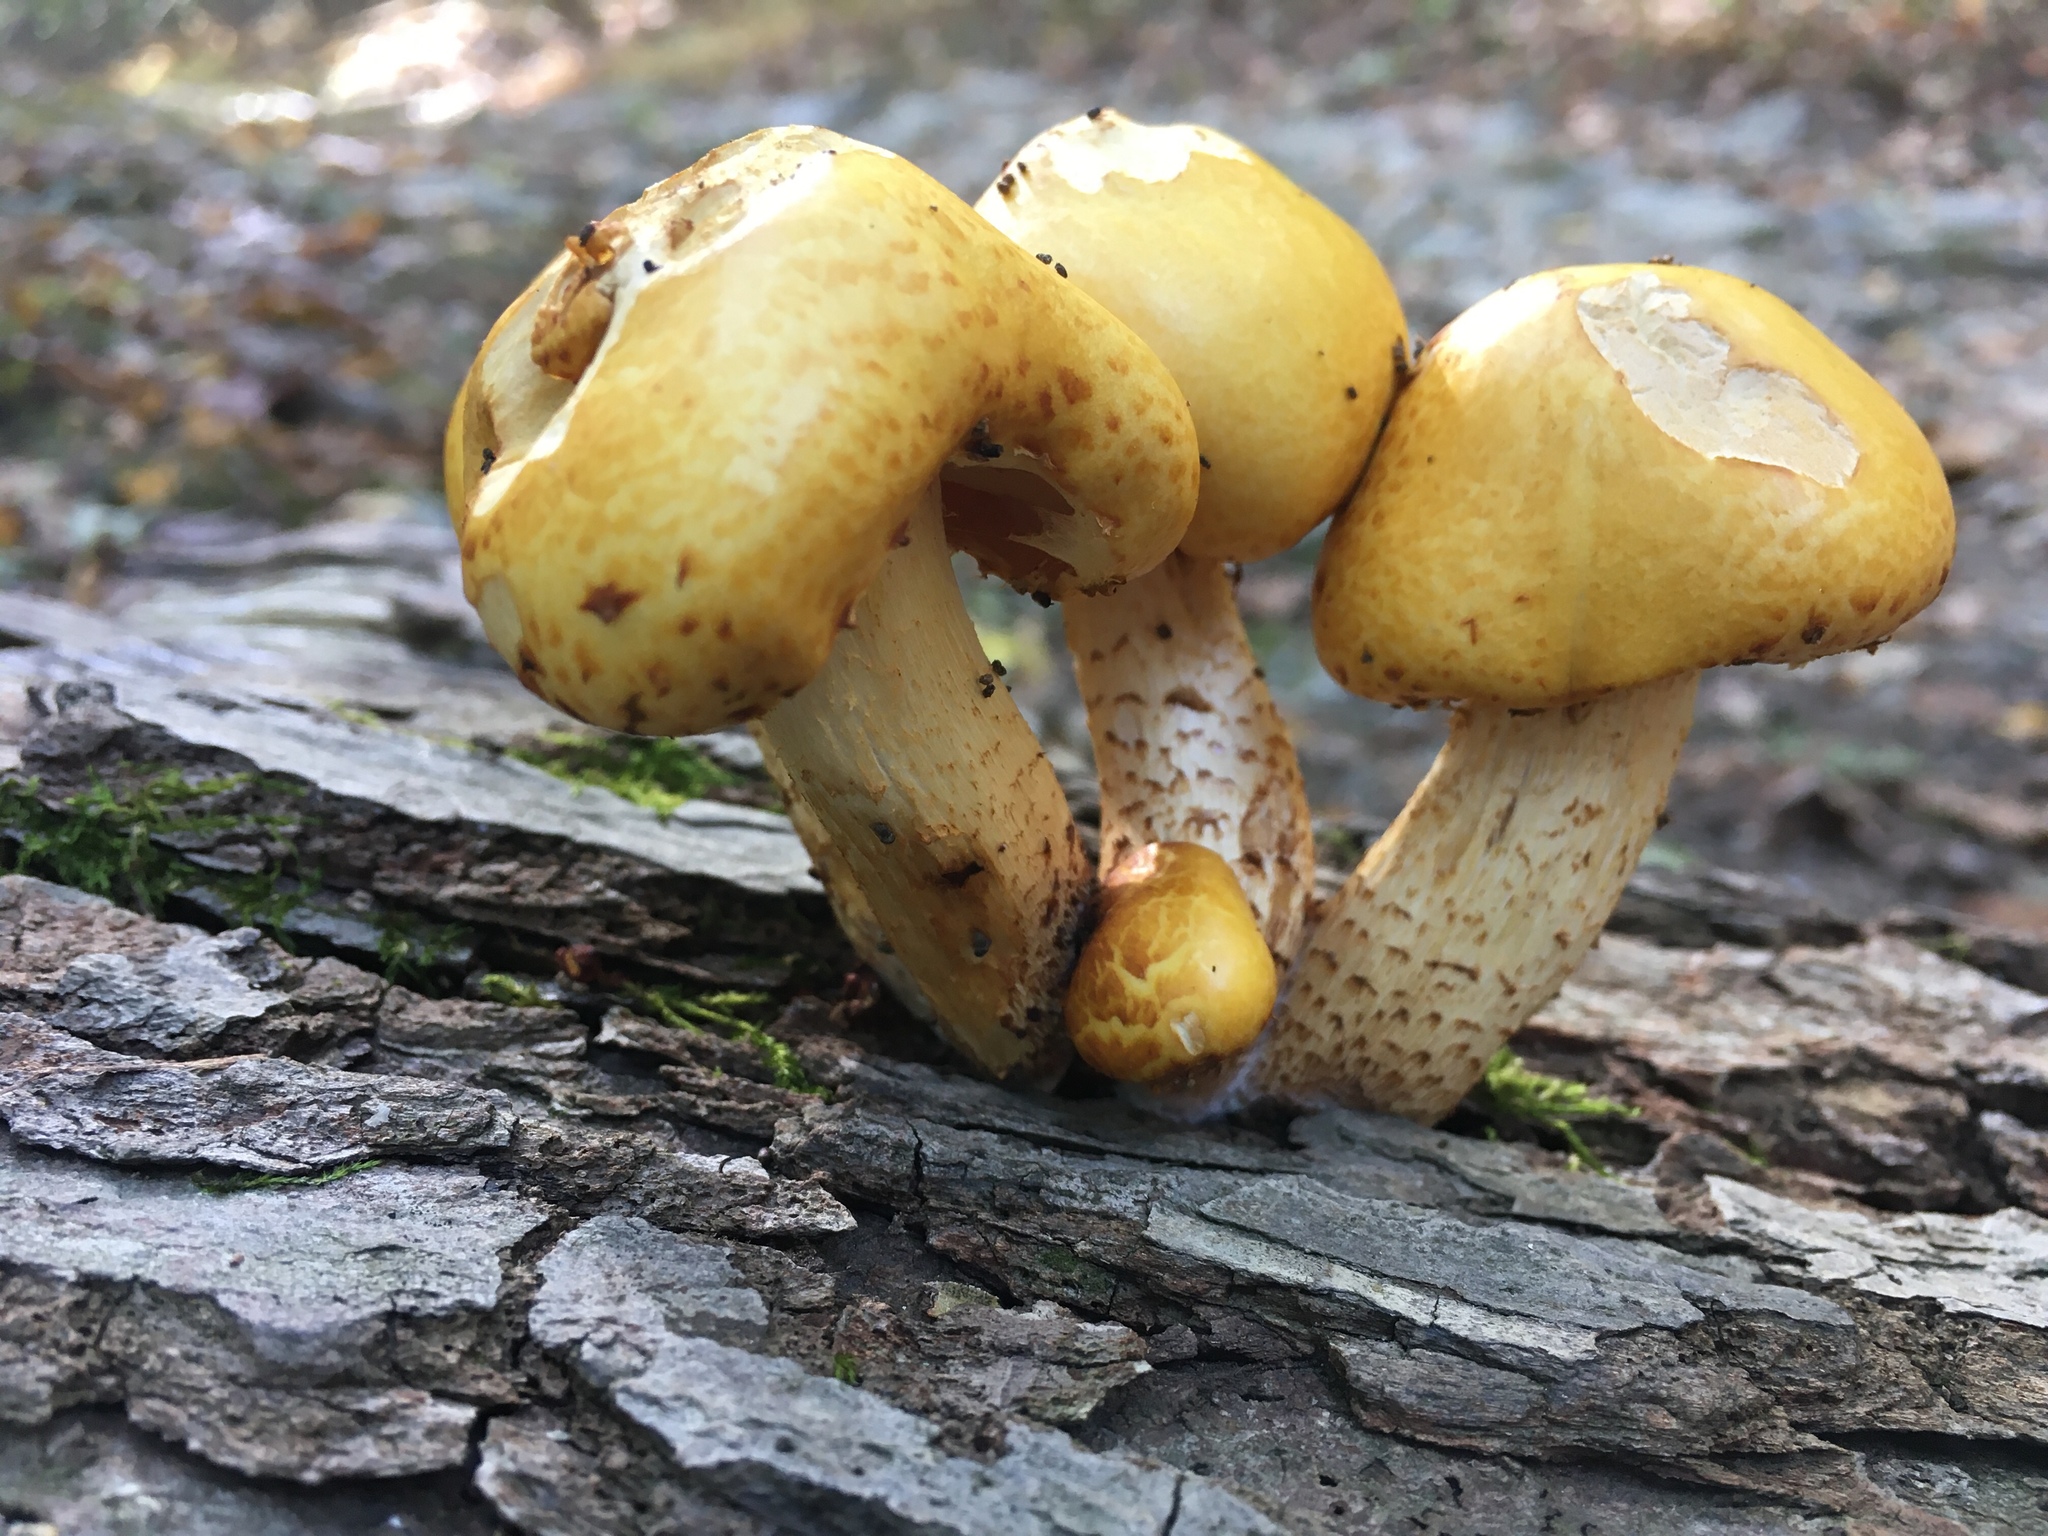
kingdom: Fungi
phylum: Basidiomycota
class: Agaricomycetes
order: Agaricales
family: Strophariaceae
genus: Pholiota
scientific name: Pholiota aurivella
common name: Golden scalycap
